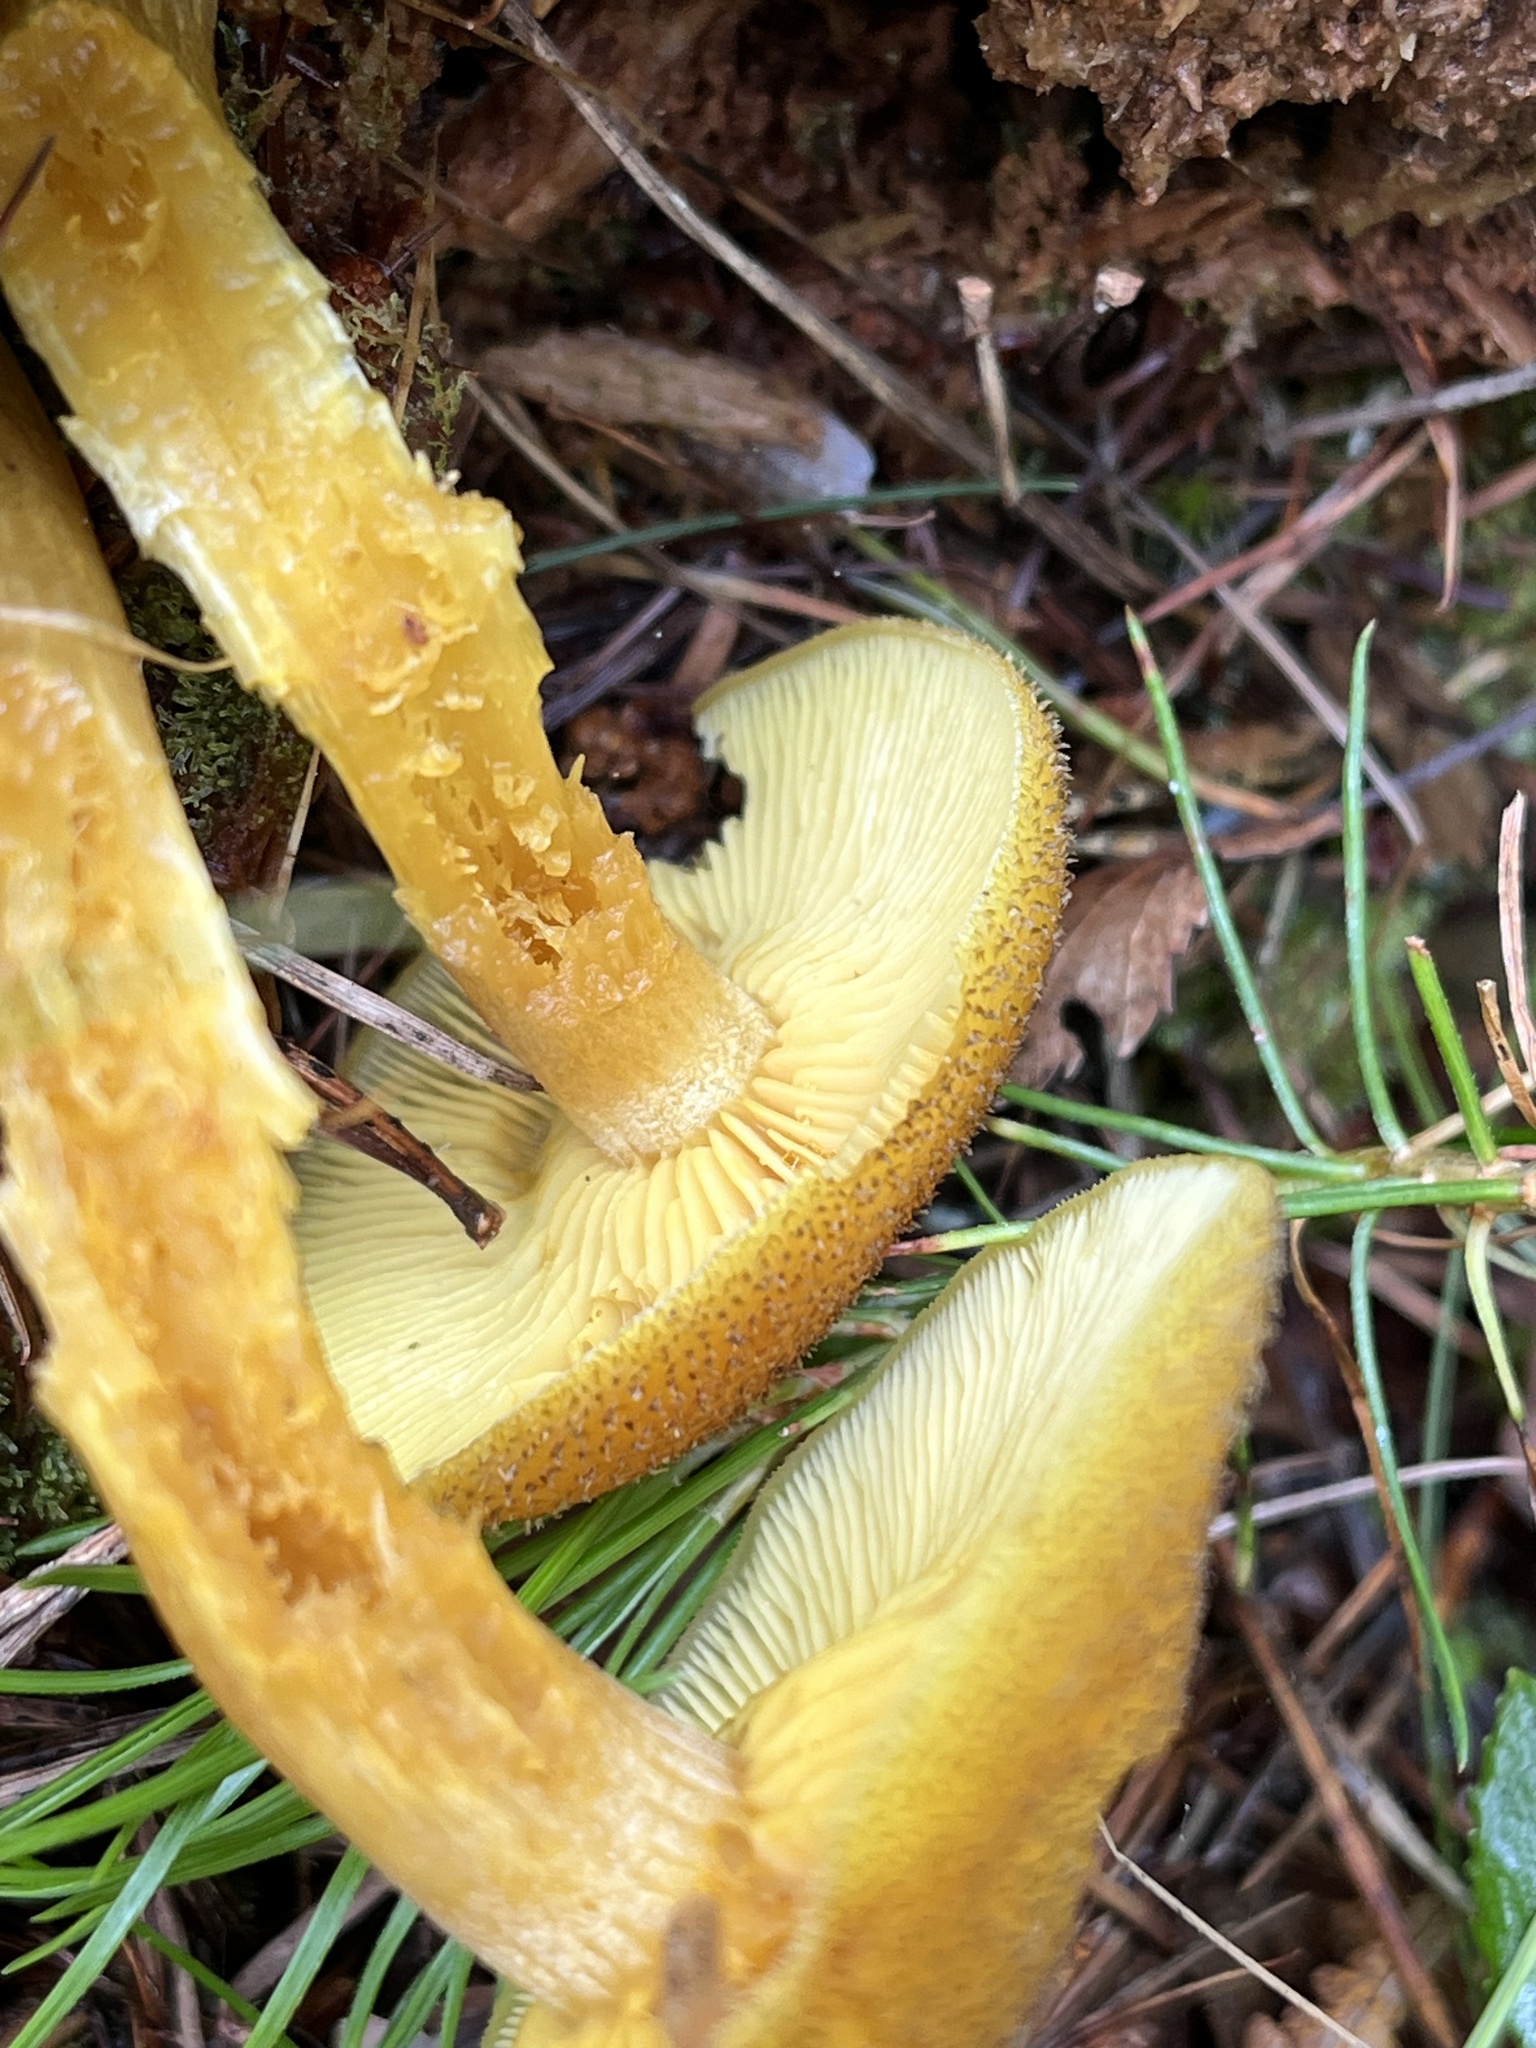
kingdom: Fungi
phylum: Basidiomycota
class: Agaricomycetes
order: Agaricales
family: Tricholomataceae
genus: Tricholomopsis
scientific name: Tricholomopsis decora
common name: Prunes and custard
